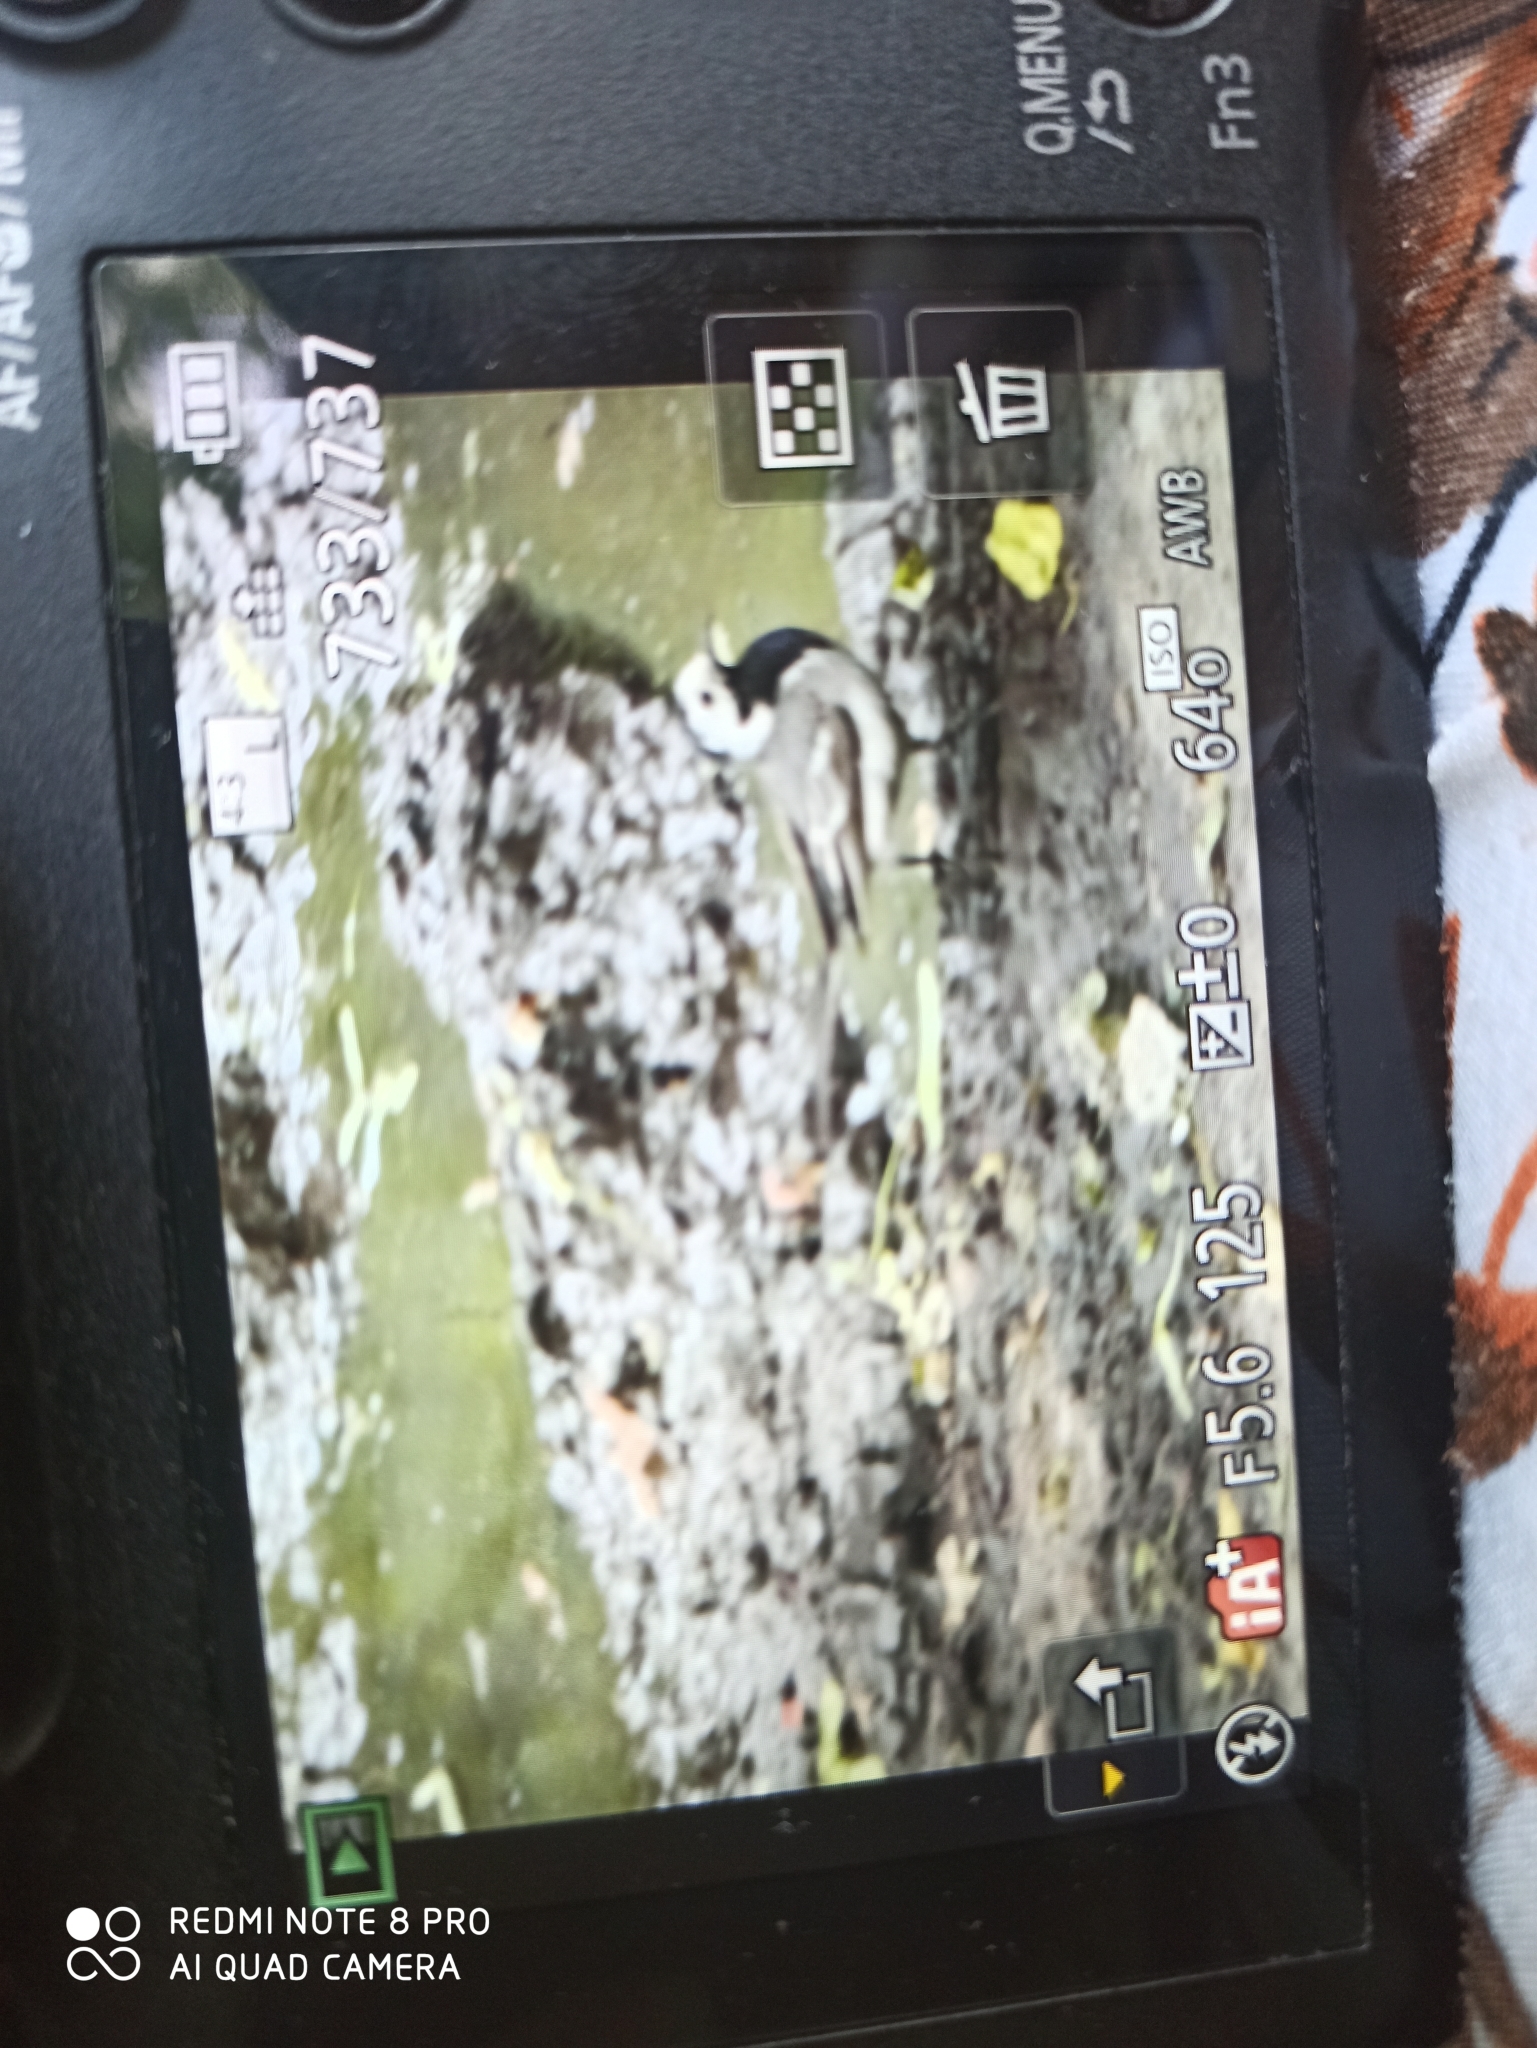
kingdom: Animalia
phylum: Chordata
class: Aves
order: Passeriformes
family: Motacillidae
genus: Motacilla
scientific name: Motacilla alba
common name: White wagtail
